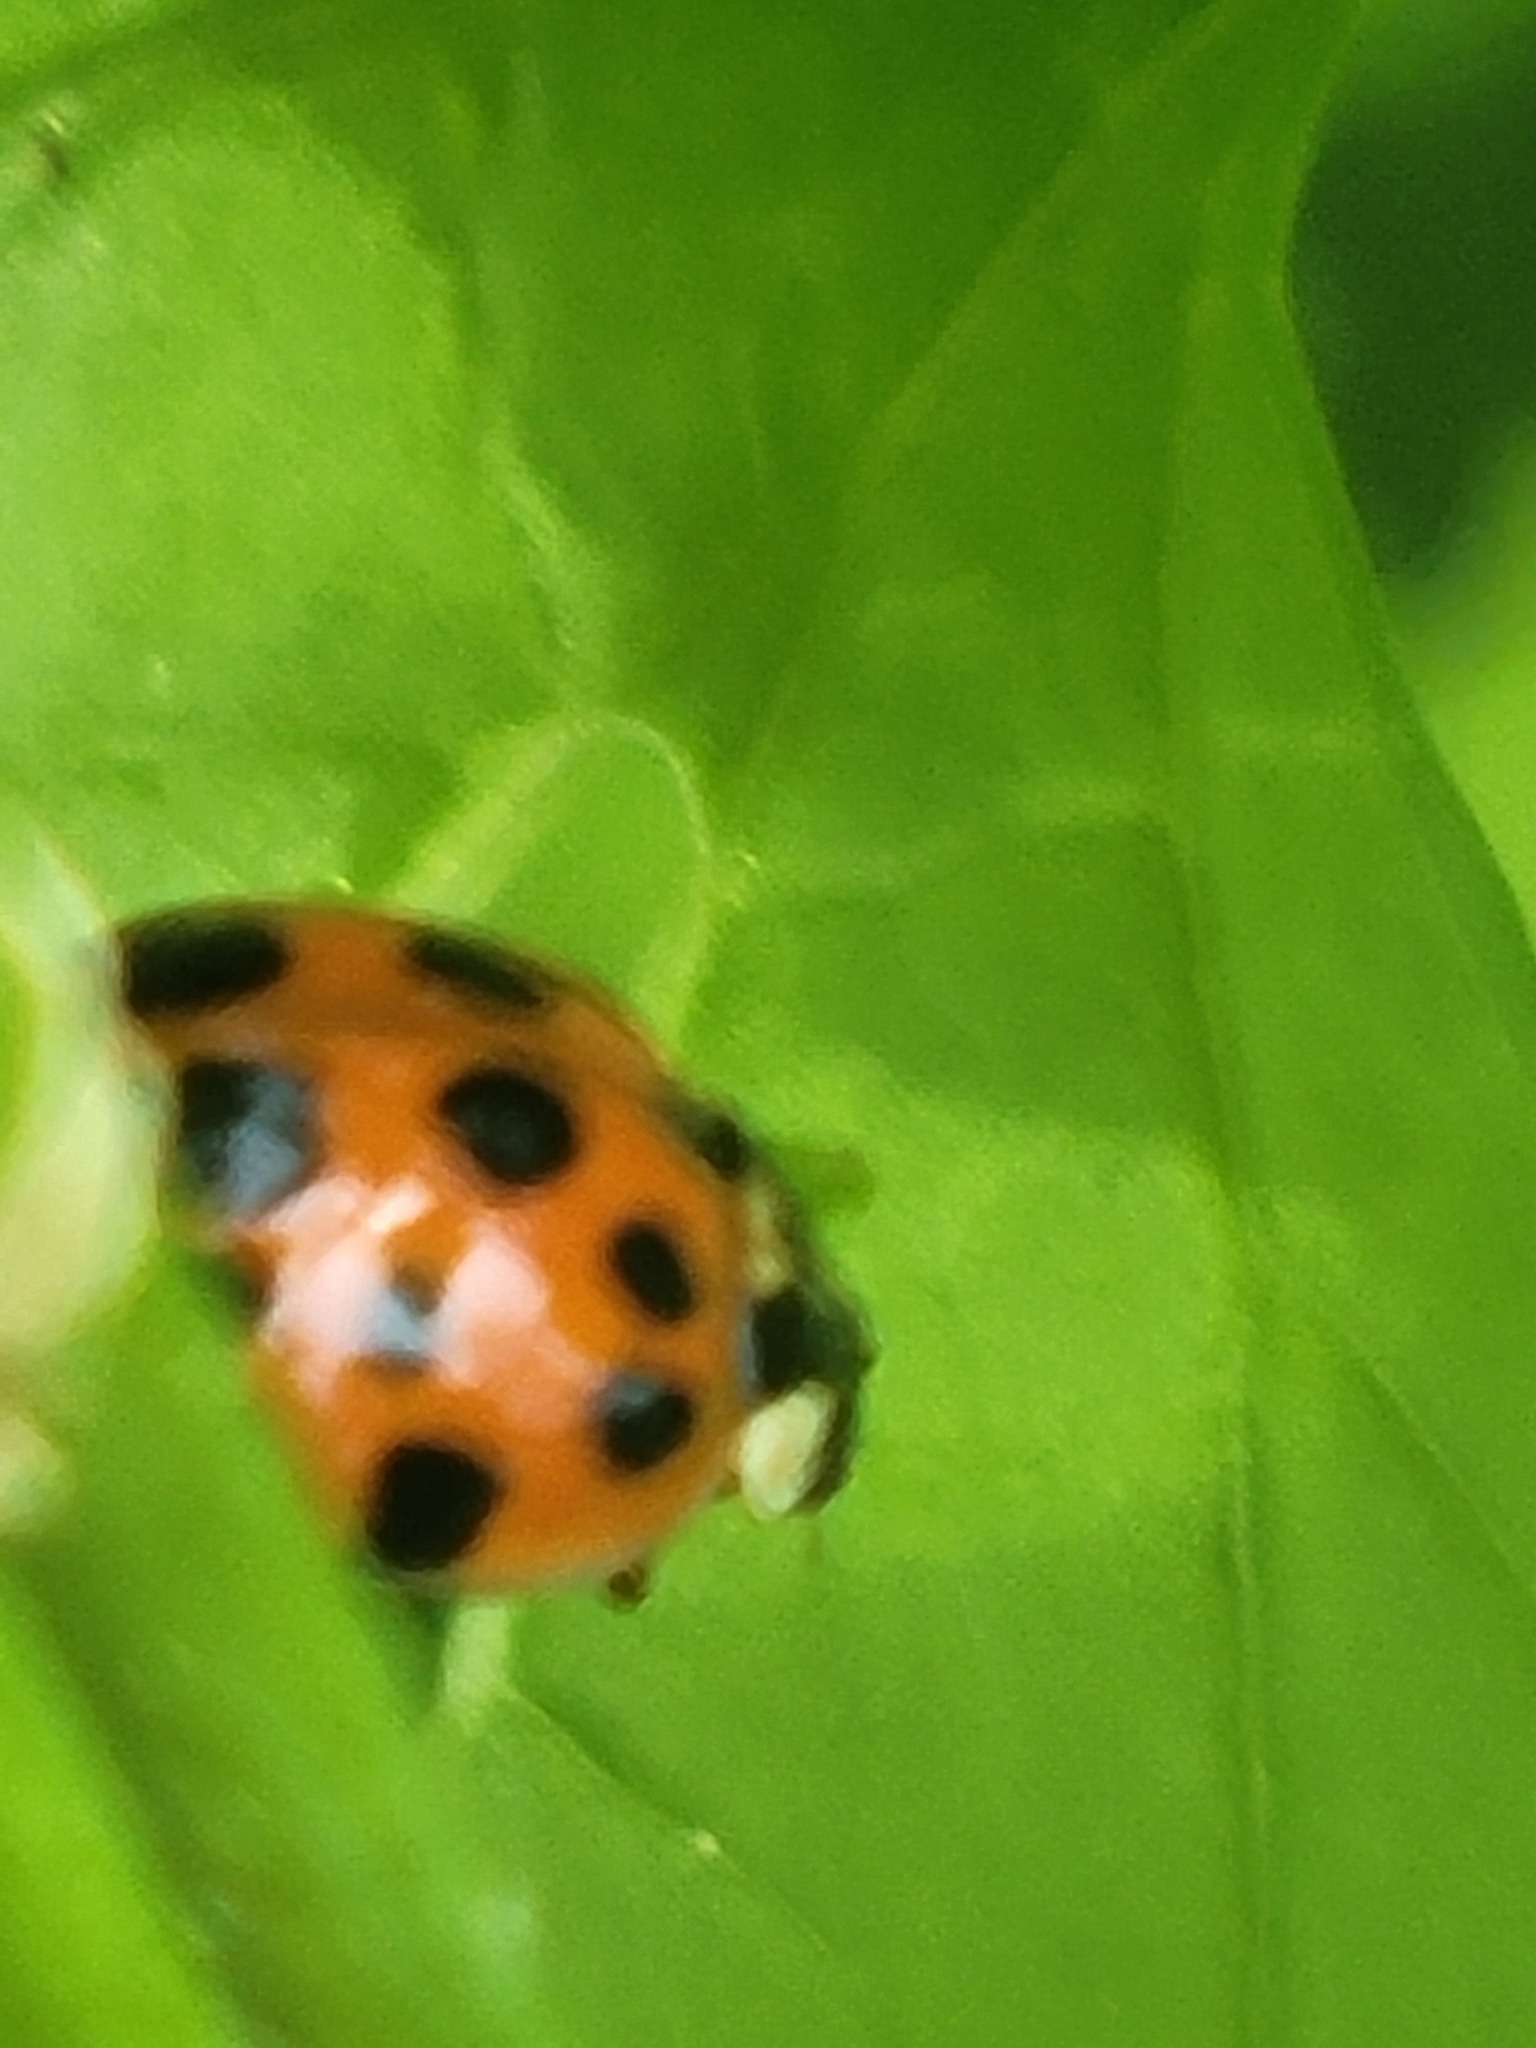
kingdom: Animalia
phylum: Arthropoda
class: Insecta
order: Coleoptera
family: Coccinellidae
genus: Harmonia
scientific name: Harmonia axyridis
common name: Harlequin ladybird
